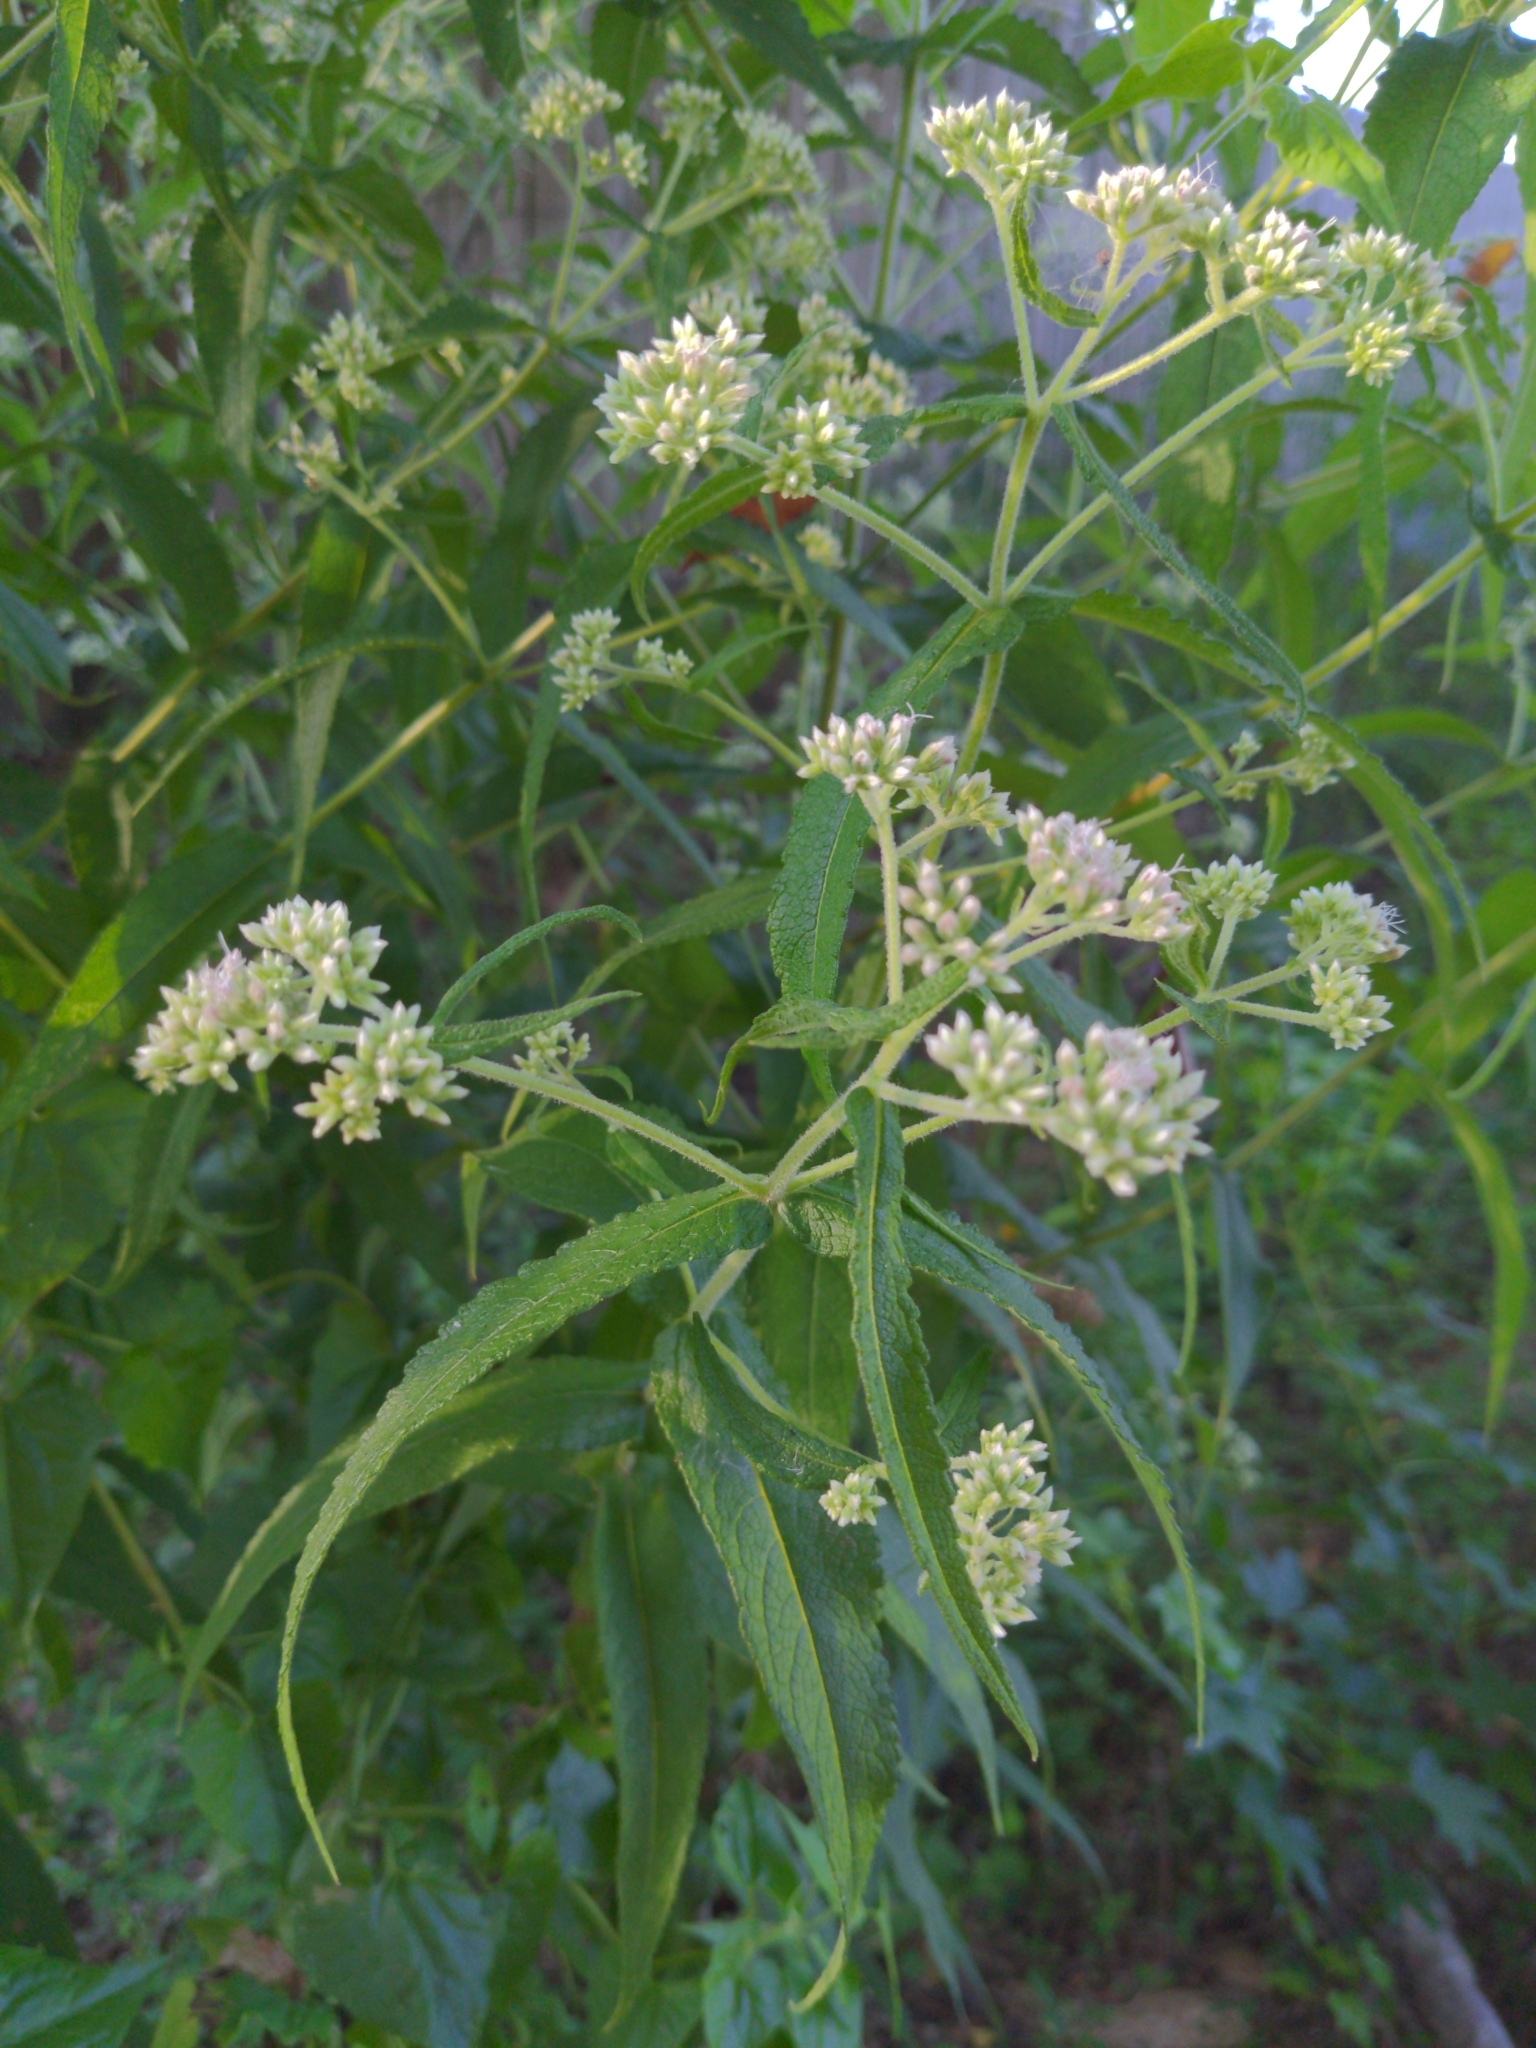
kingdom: Plantae
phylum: Tracheophyta
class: Magnoliopsida
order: Asterales
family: Asteraceae
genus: Eupatorium
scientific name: Eupatorium perfoliatum
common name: Boneset
